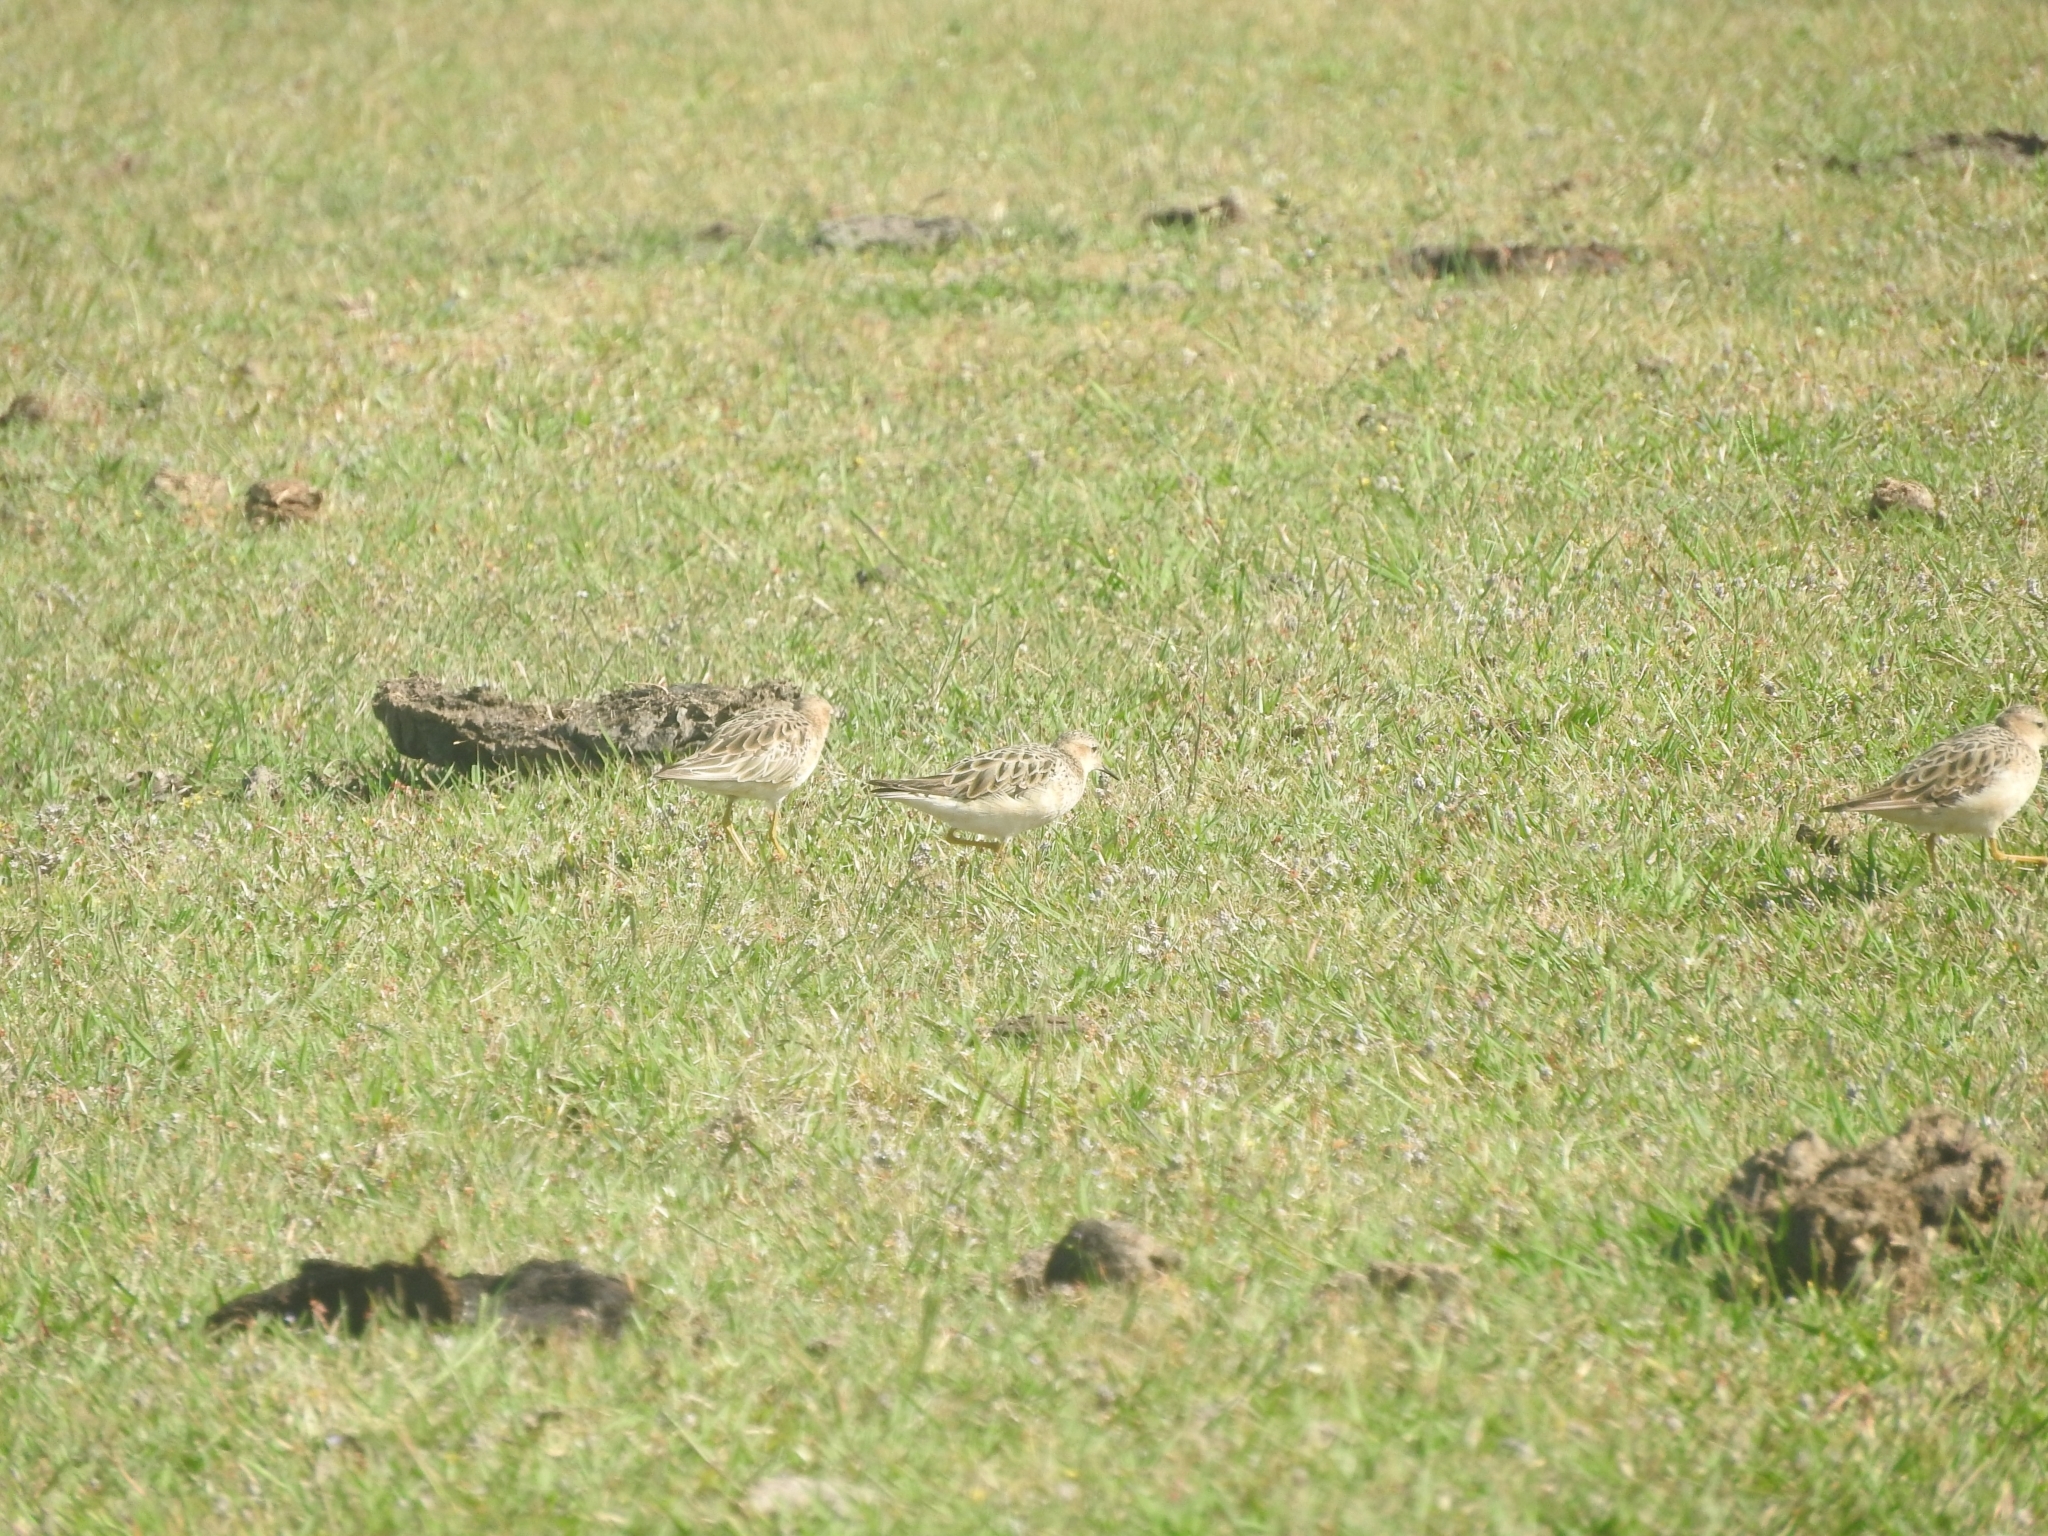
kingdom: Animalia
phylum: Chordata
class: Aves
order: Charadriiformes
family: Scolopacidae
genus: Calidris
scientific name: Calidris subruficollis
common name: Buff-breasted sandpiper
